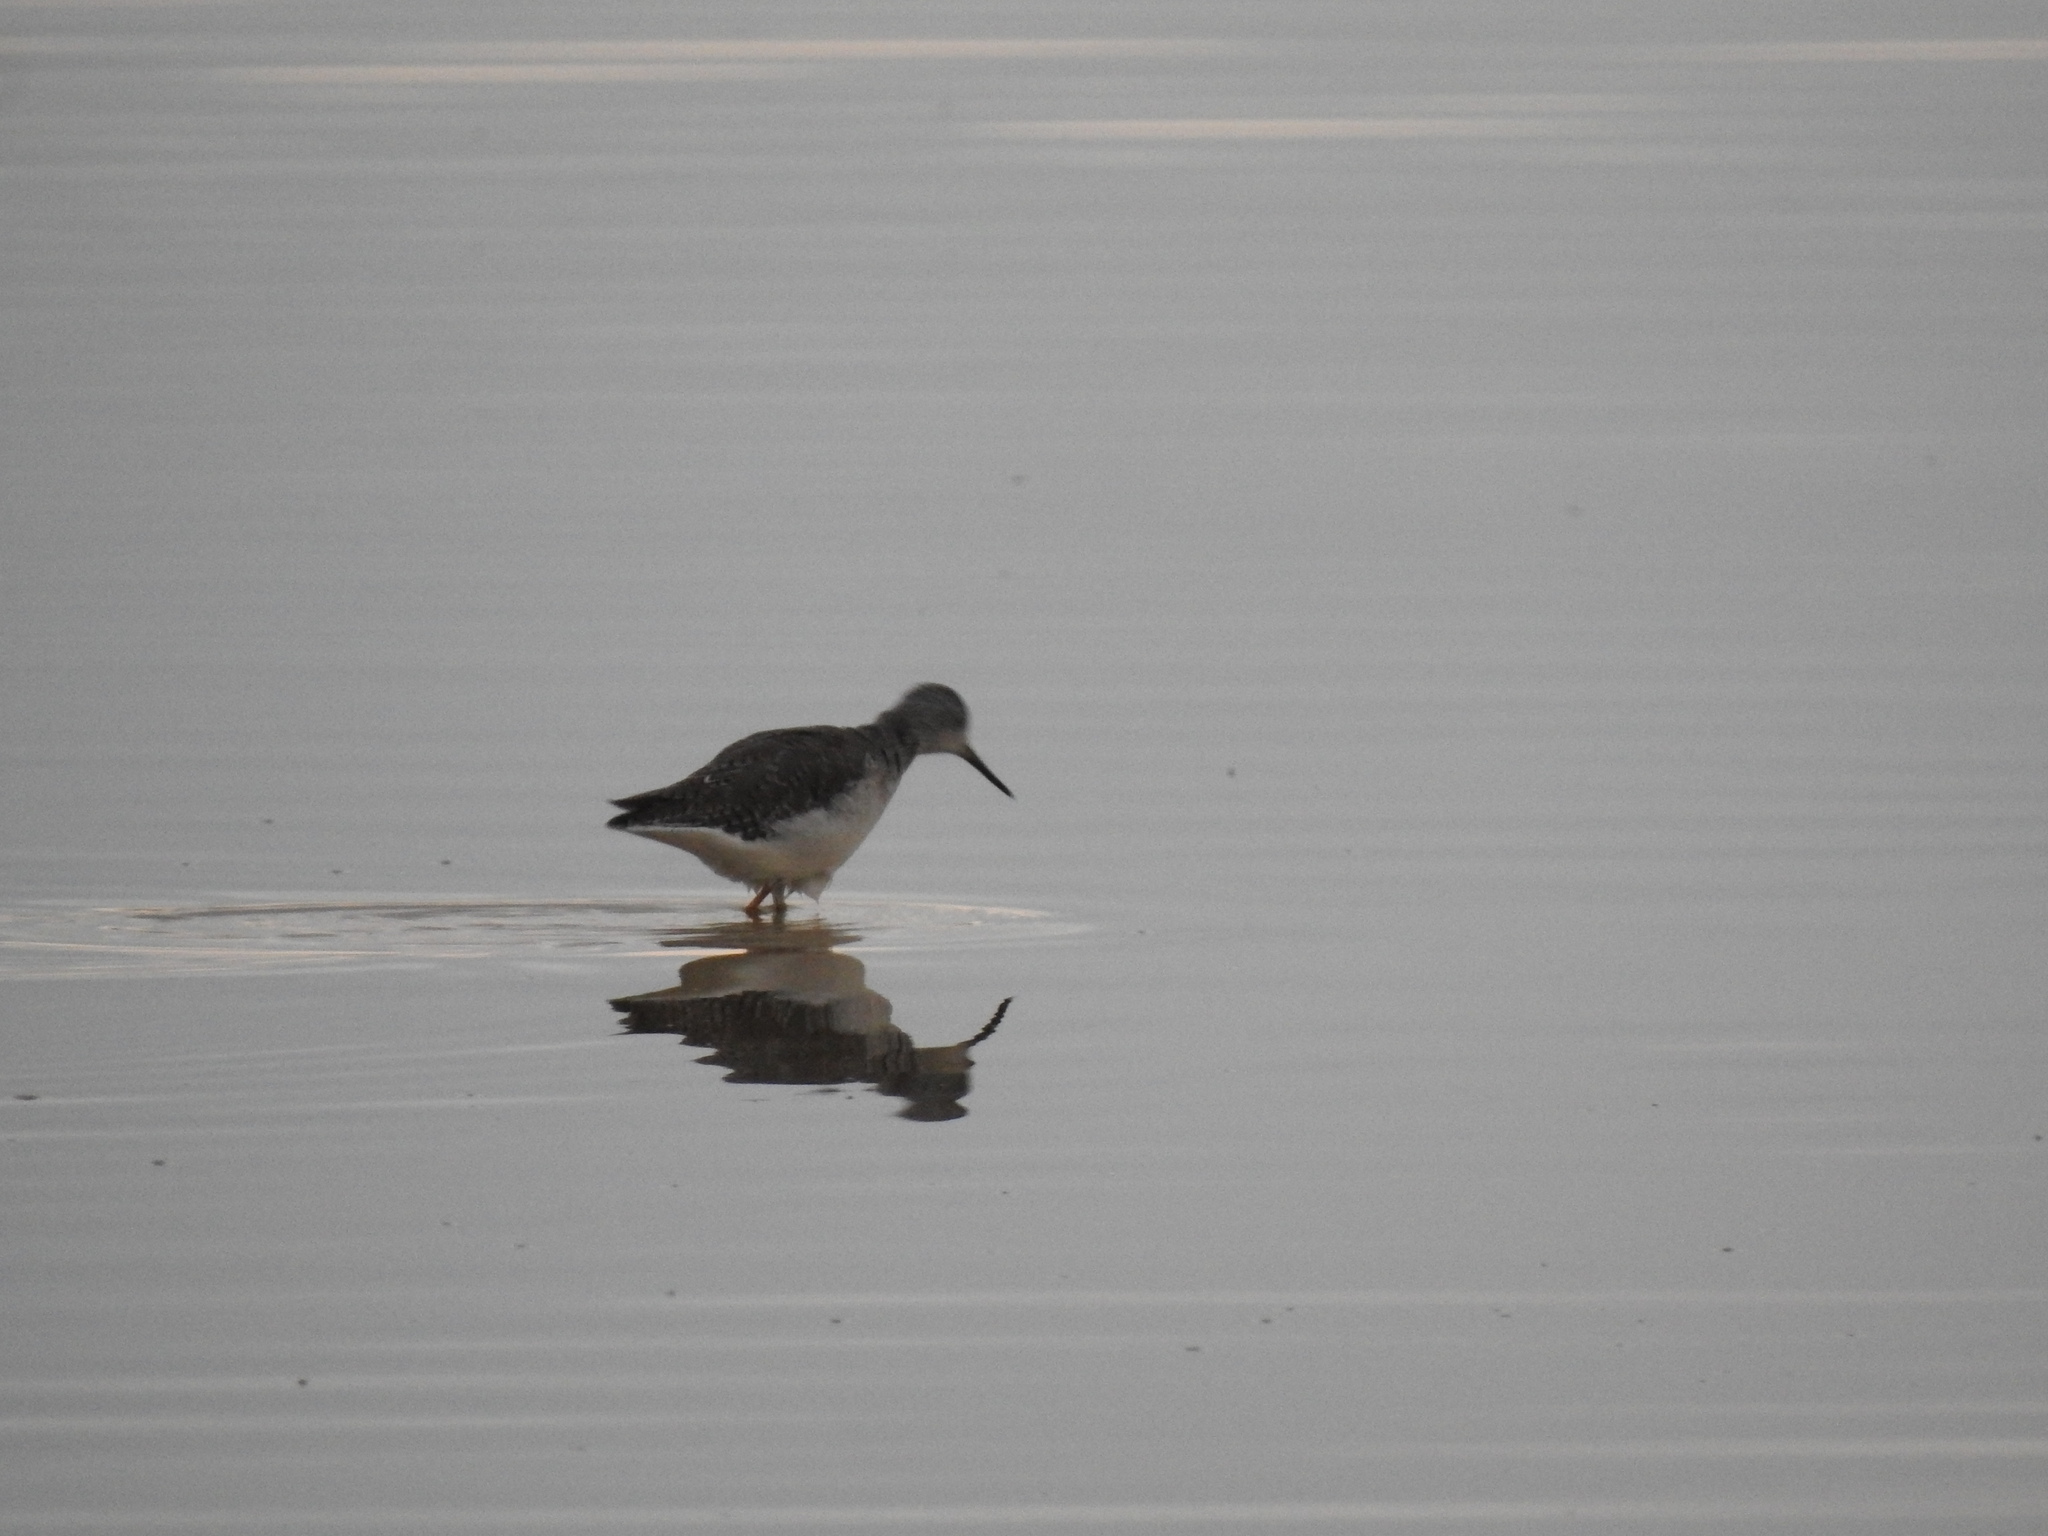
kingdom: Animalia
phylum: Chordata
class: Aves
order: Charadriiformes
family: Scolopacidae
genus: Tringa
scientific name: Tringa flavipes
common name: Lesser yellowlegs
